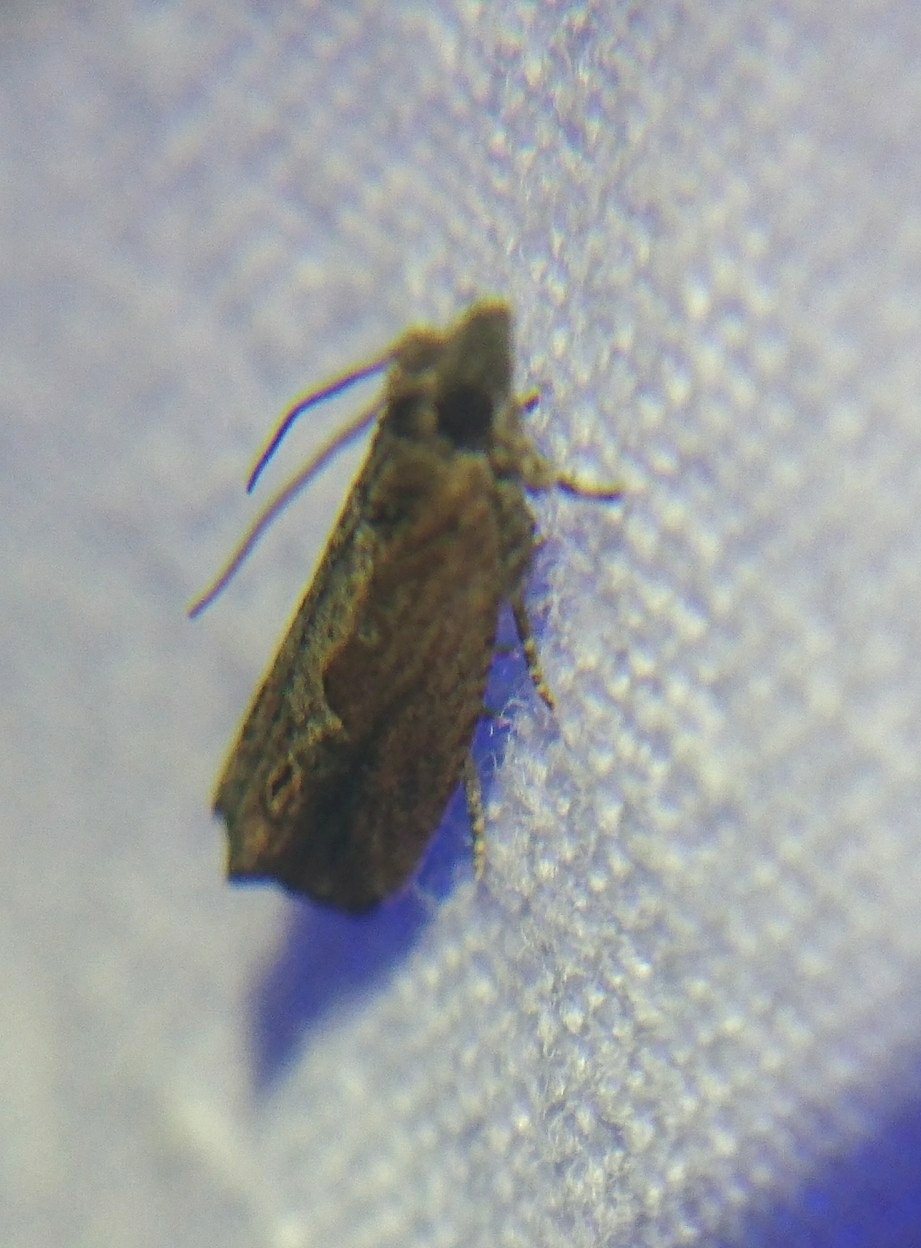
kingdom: Animalia
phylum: Arthropoda
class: Insecta
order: Lepidoptera
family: Tortricidae
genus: Strepsicrates
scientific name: Strepsicrates smithiana
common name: Bayberry leaftier moth
